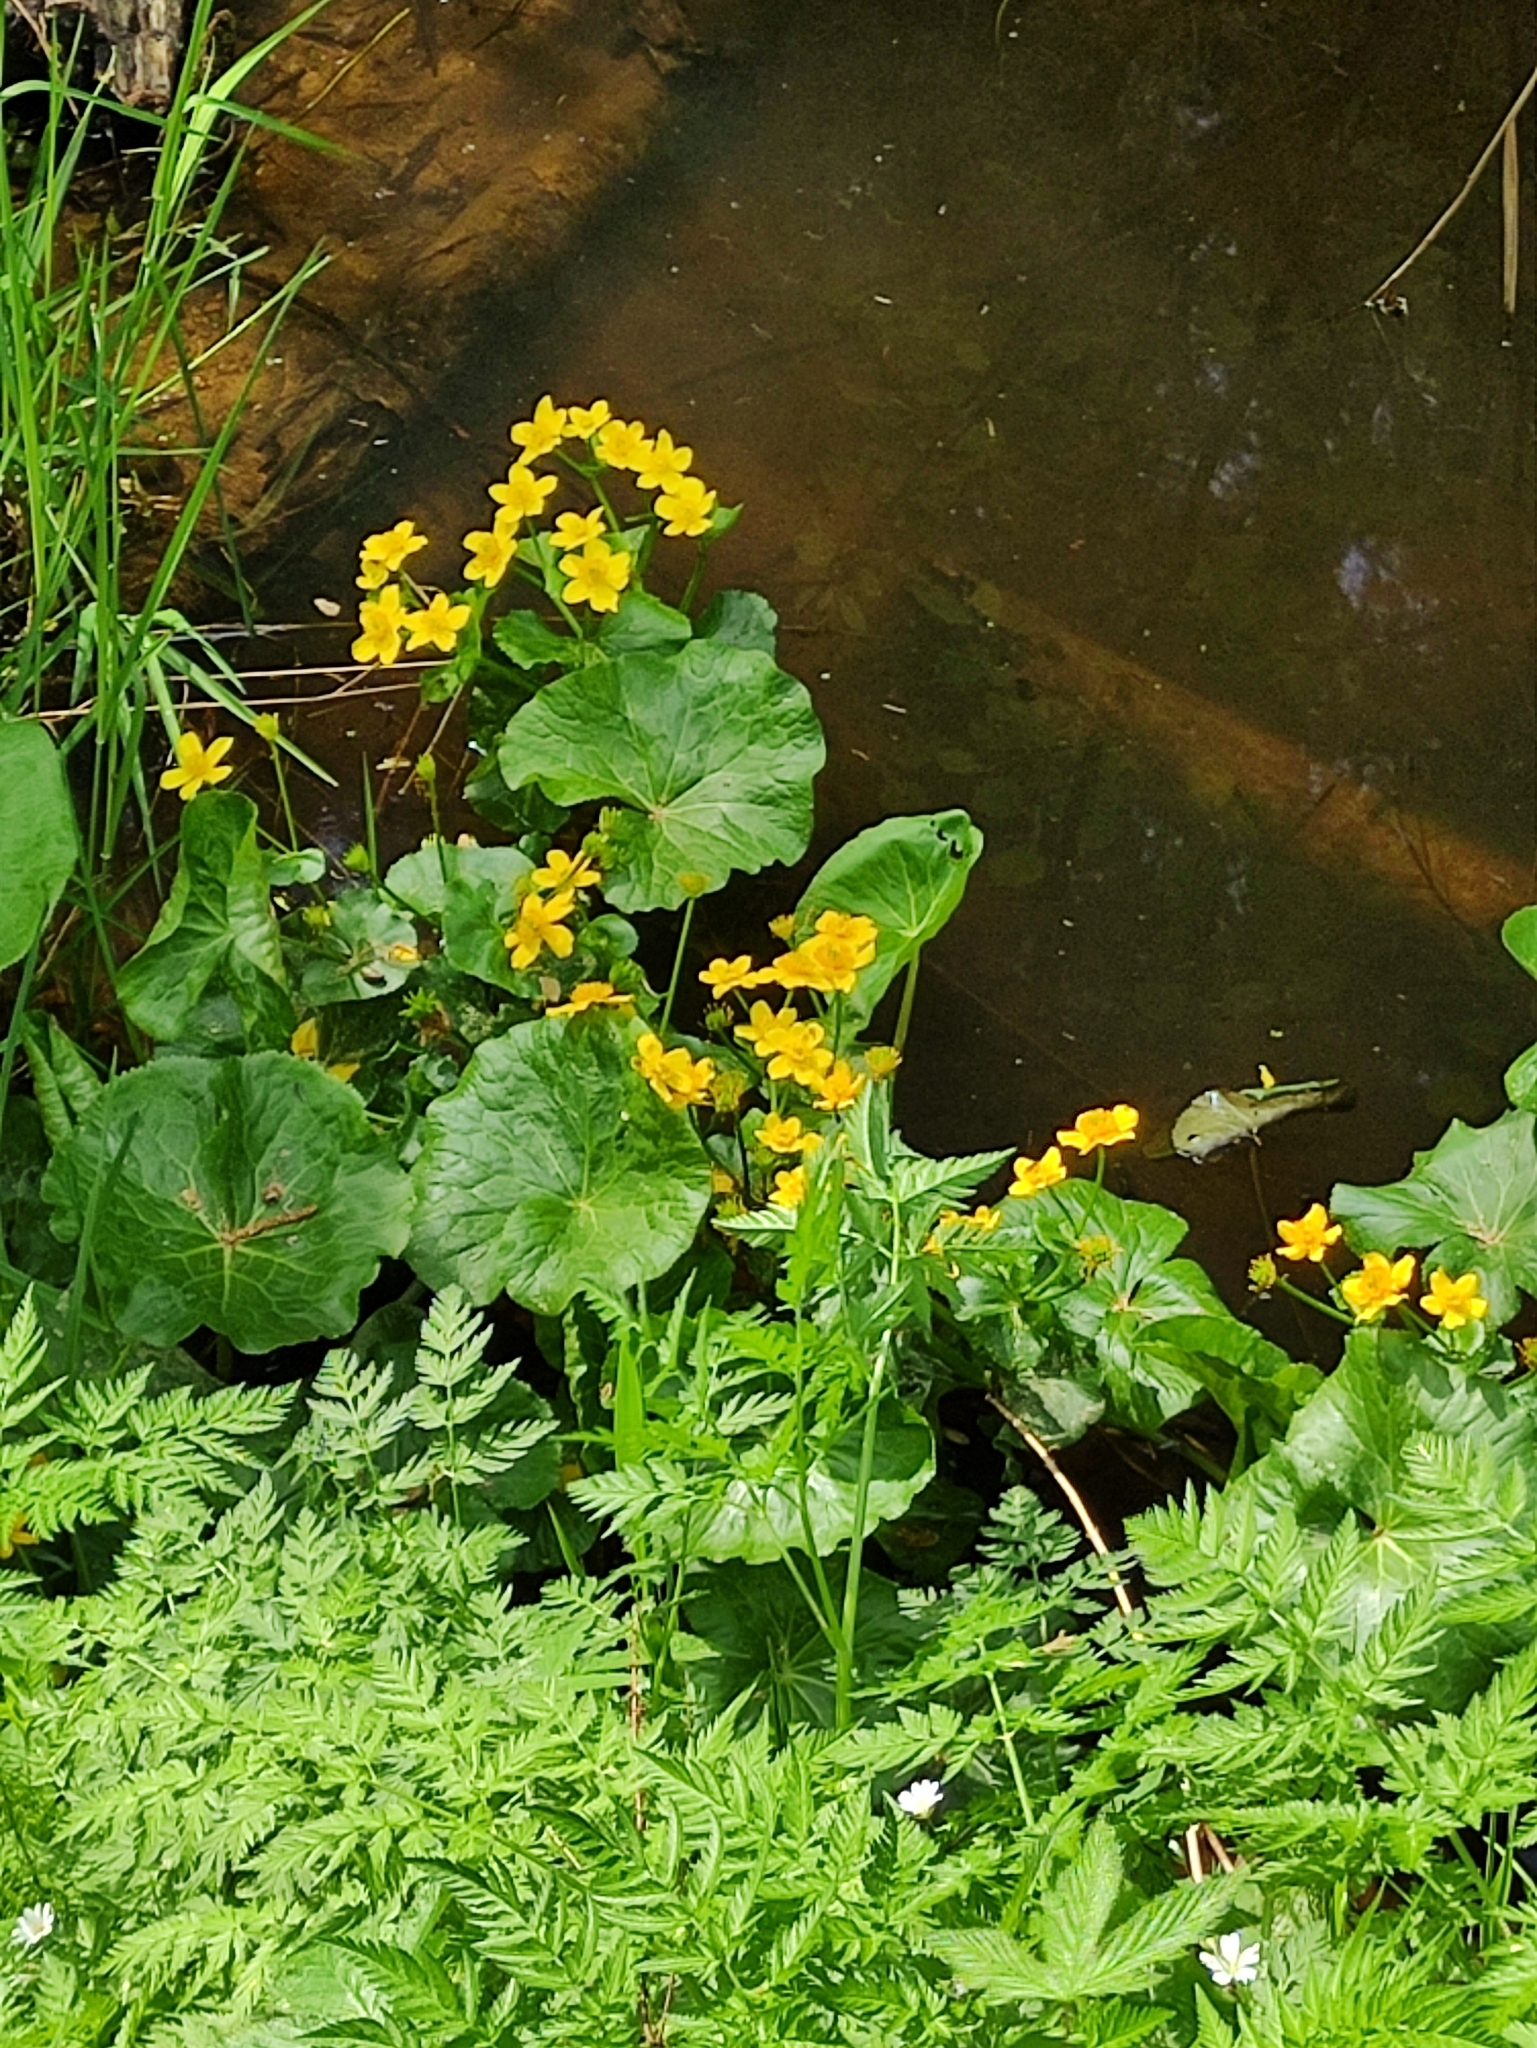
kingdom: Plantae
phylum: Tracheophyta
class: Magnoliopsida
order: Ranunculales
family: Ranunculaceae
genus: Caltha
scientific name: Caltha palustris
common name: Marsh marigold
